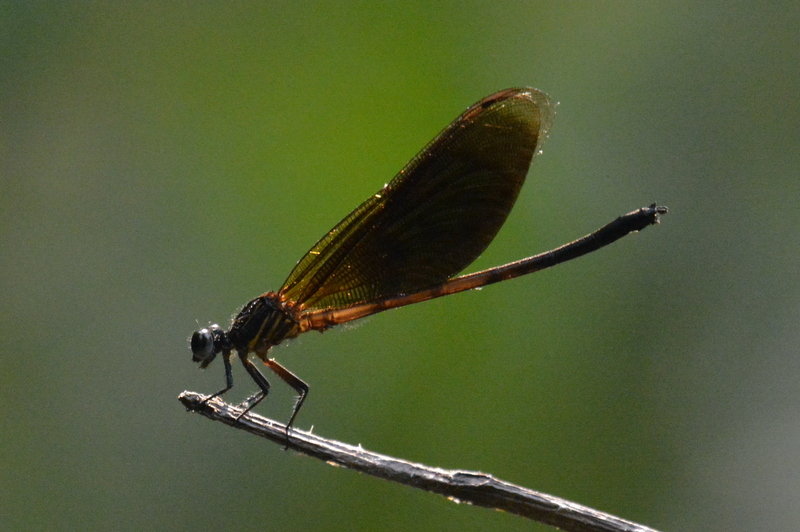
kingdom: Animalia
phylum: Arthropoda
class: Insecta
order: Odonata
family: Euphaeidae
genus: Euphaea
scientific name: Euphaea masoni
